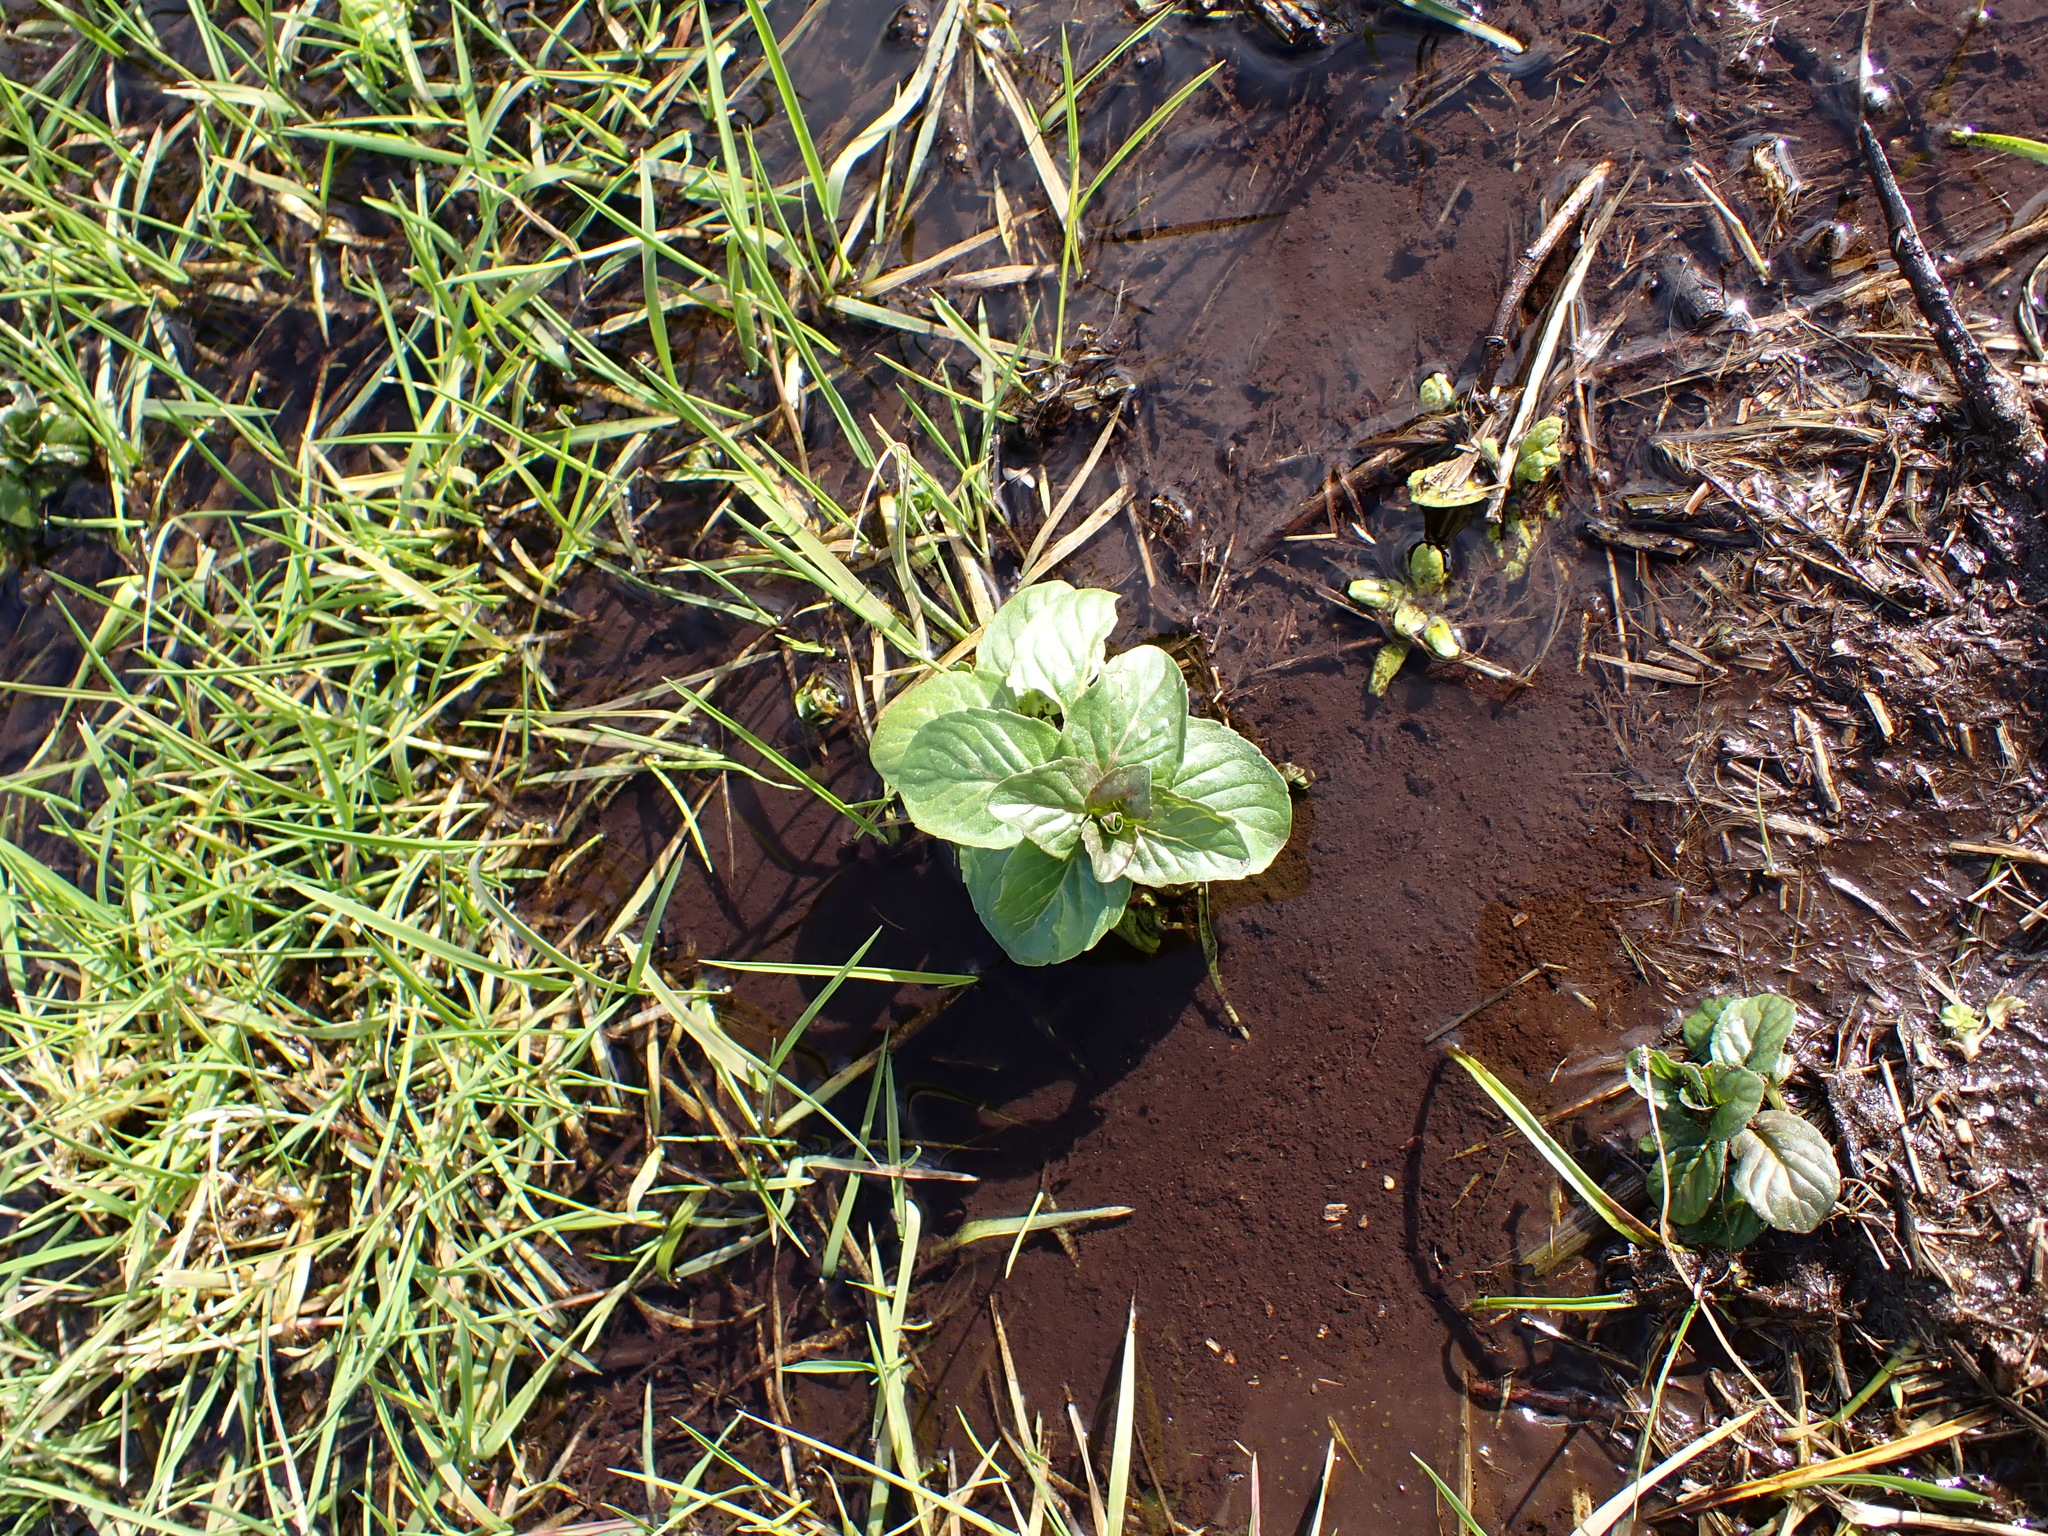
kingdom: Plantae
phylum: Tracheophyta
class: Magnoliopsida
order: Lamiales
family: Lamiaceae
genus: Mentha
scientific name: Mentha aquatica
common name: Water mint
